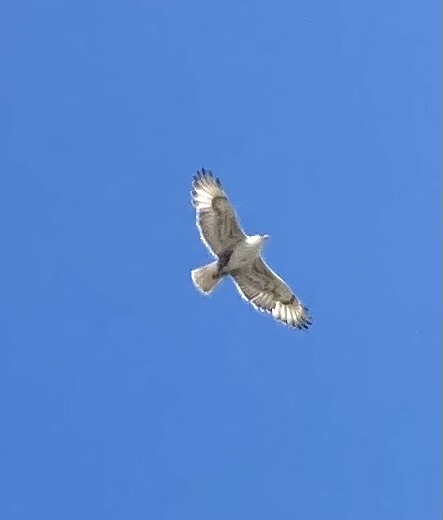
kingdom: Animalia
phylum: Chordata
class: Aves
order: Accipitriformes
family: Accipitridae
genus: Buteo
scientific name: Buteo regalis
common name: Ferruginous hawk
